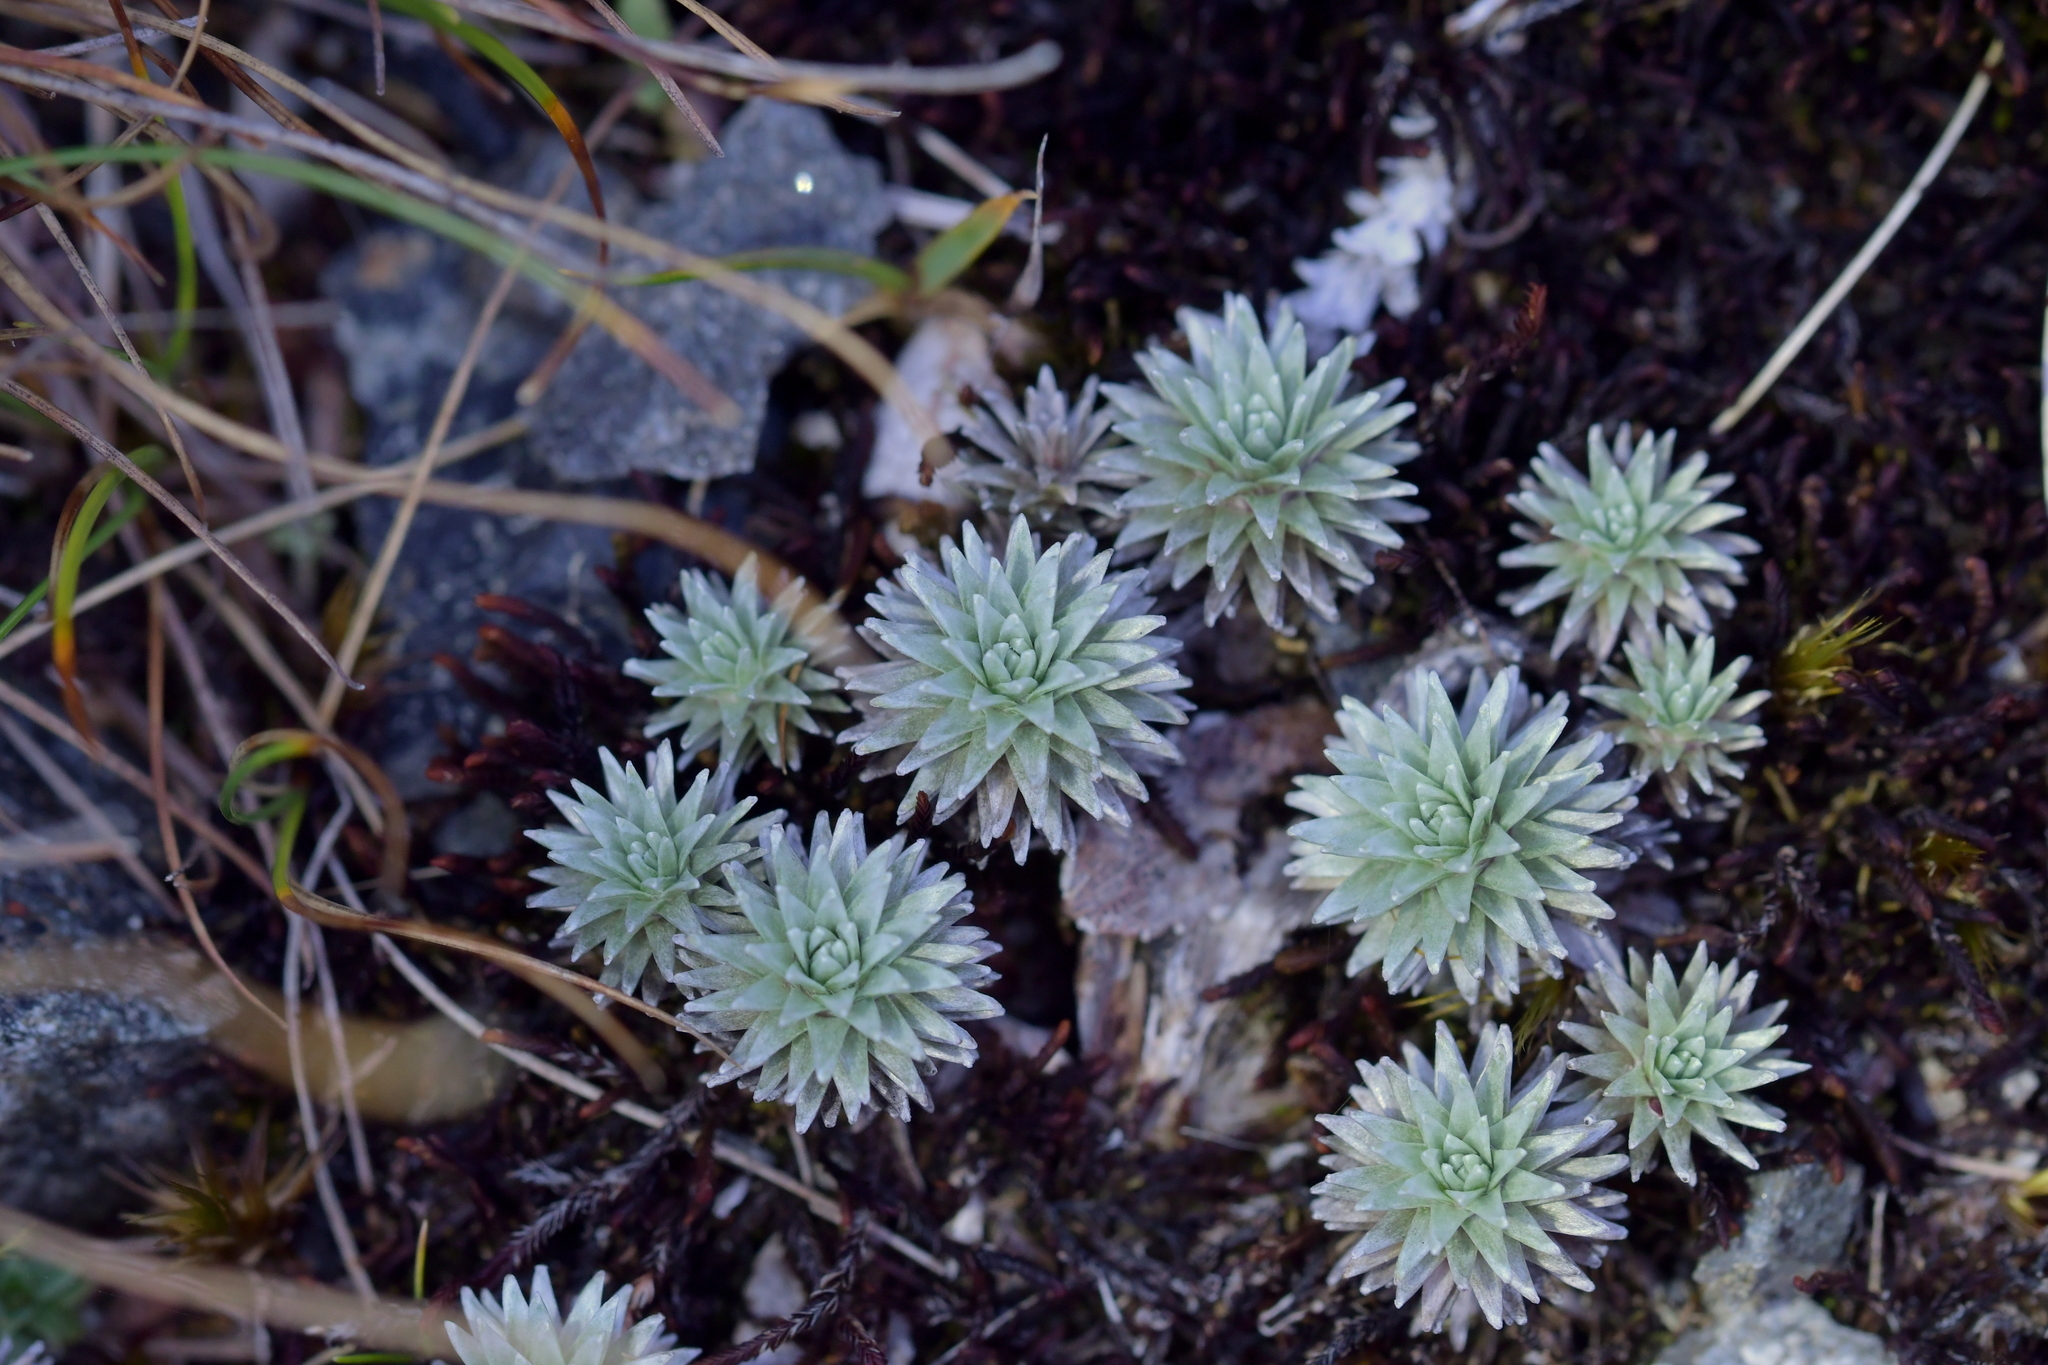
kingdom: Plantae
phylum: Tracheophyta
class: Magnoliopsida
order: Asterales
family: Asteraceae
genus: Raoulia
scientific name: Raoulia grandiflora
